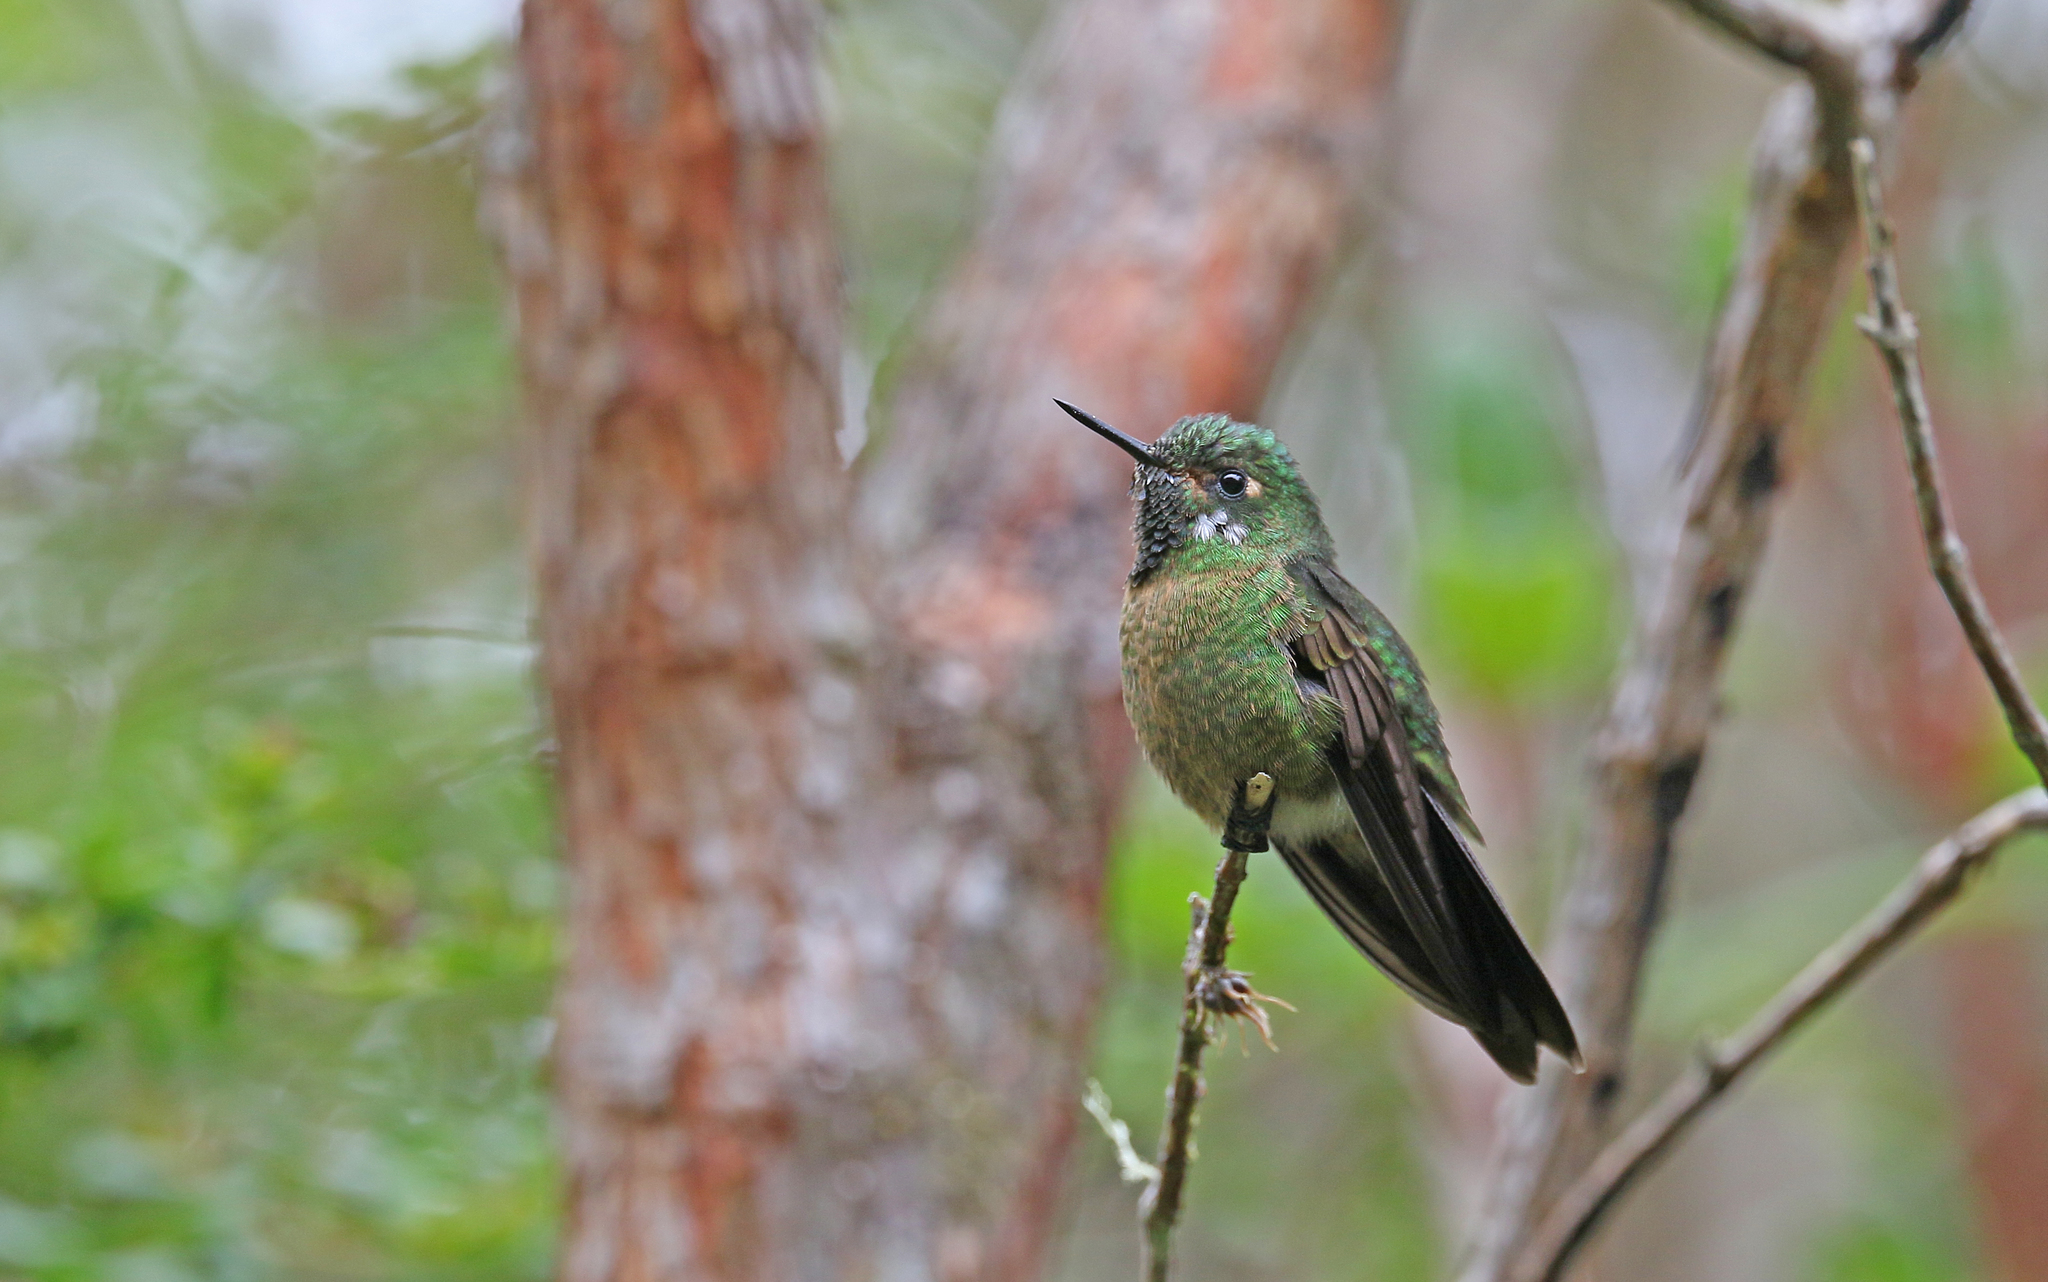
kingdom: Animalia
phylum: Chordata
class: Aves
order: Apodiformes
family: Trochilidae
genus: Metallura
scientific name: Metallura tyrianthina
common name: Tyrian metaltail
